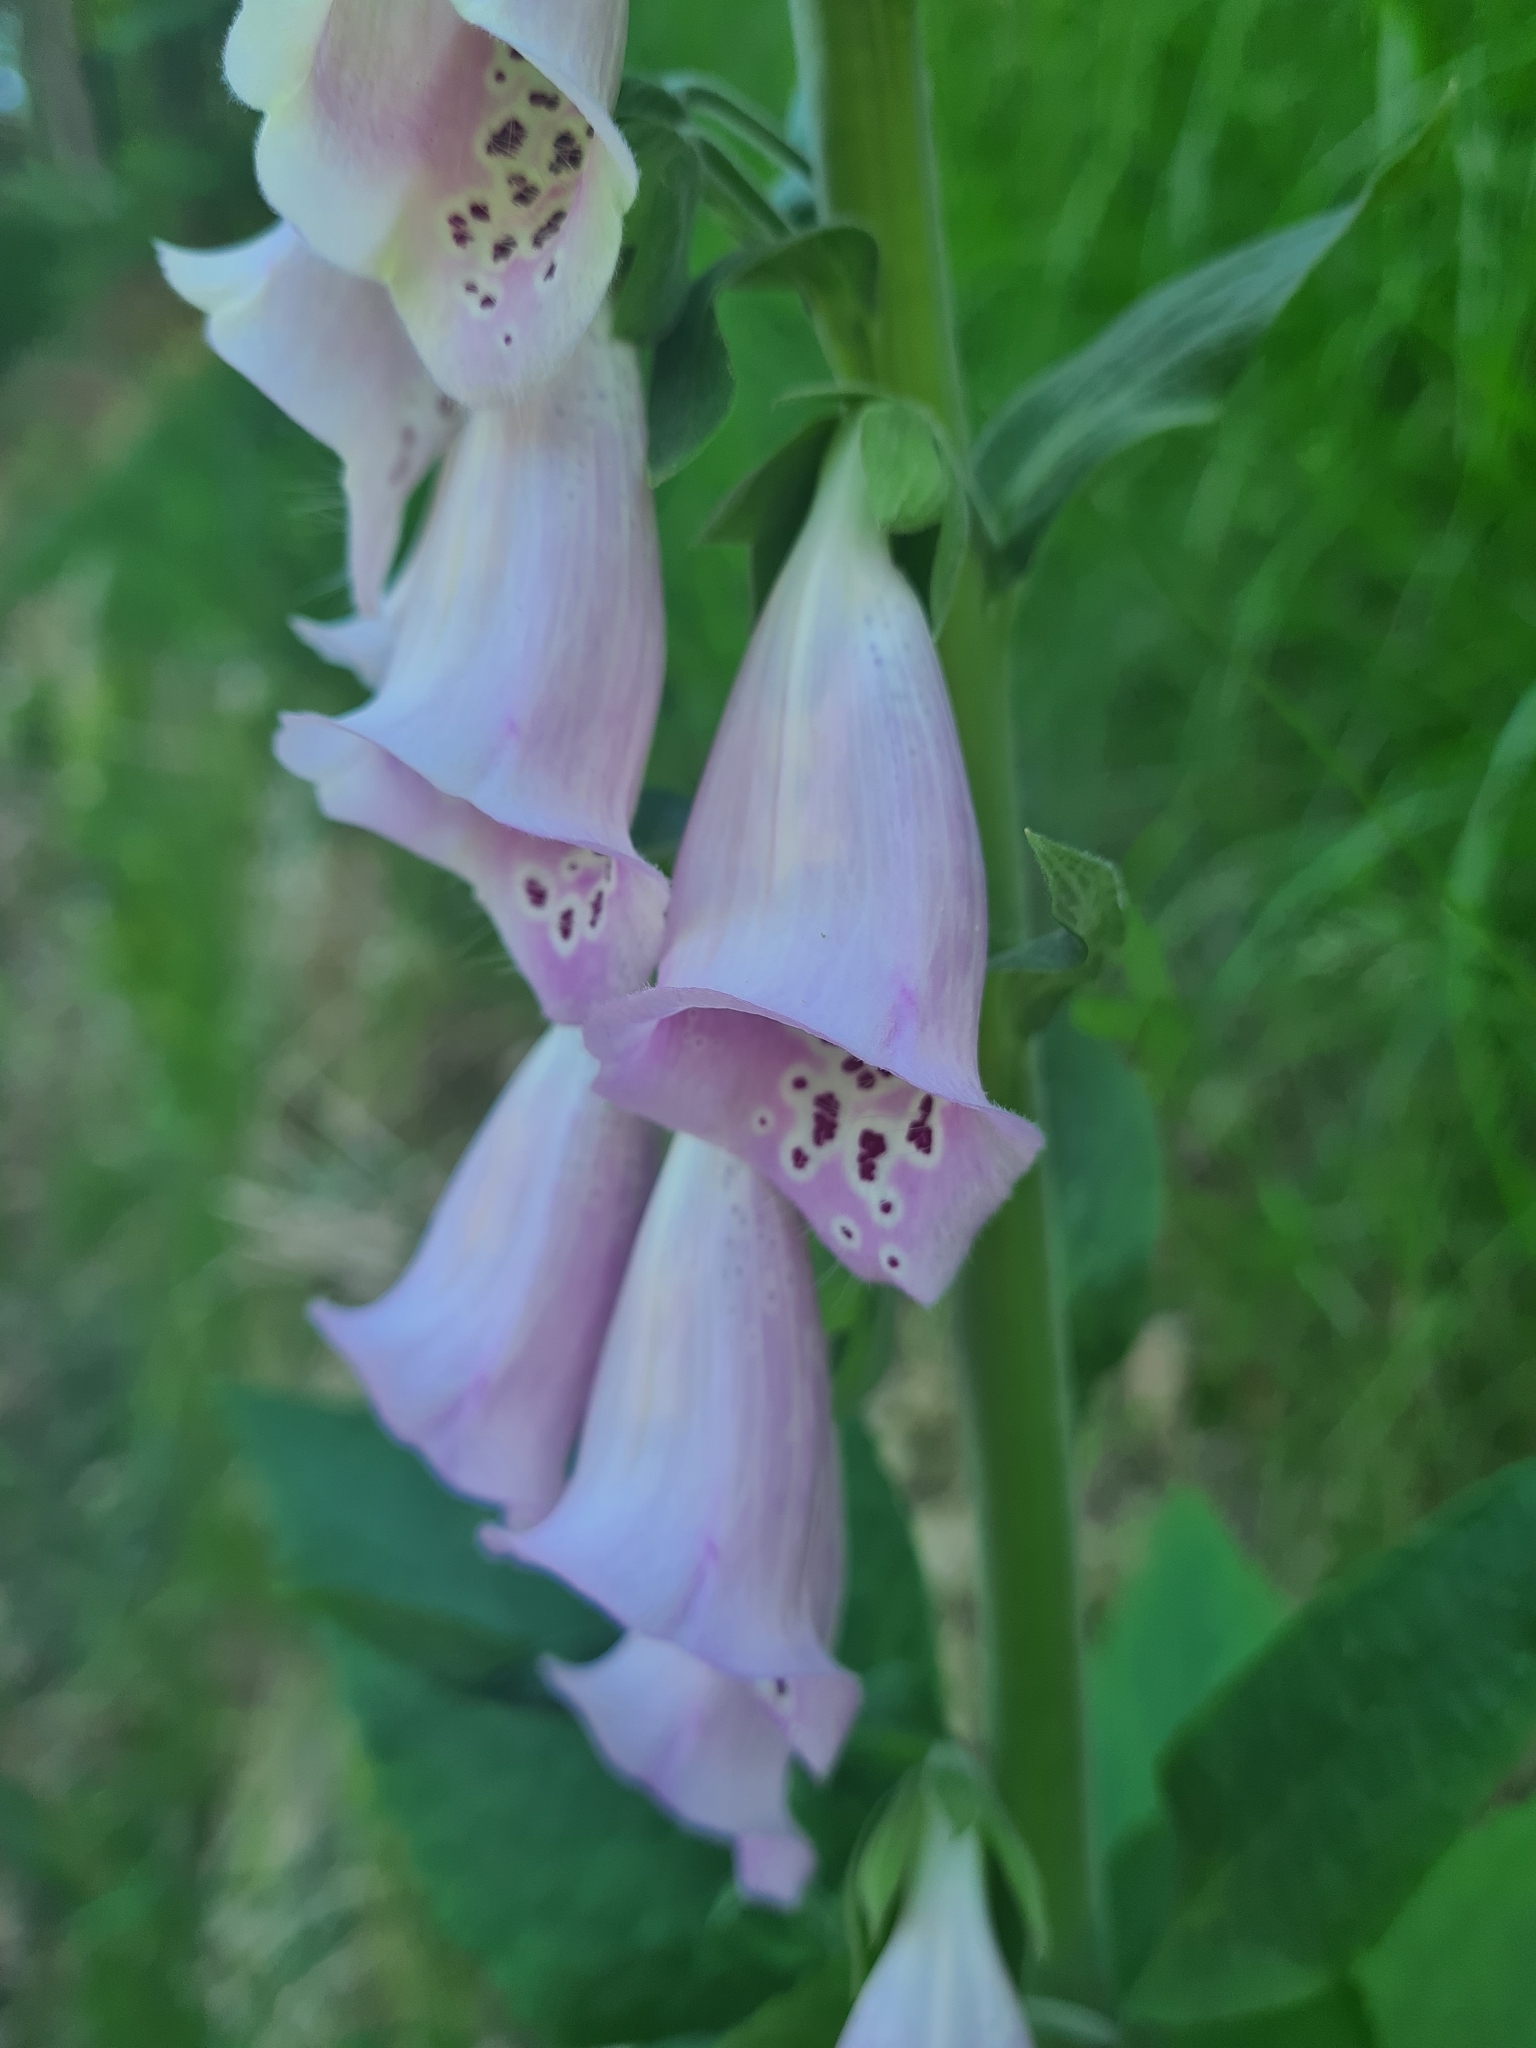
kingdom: Plantae
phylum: Tracheophyta
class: Magnoliopsida
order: Lamiales
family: Plantaginaceae
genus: Digitalis
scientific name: Digitalis purpurea
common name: Foxglove
